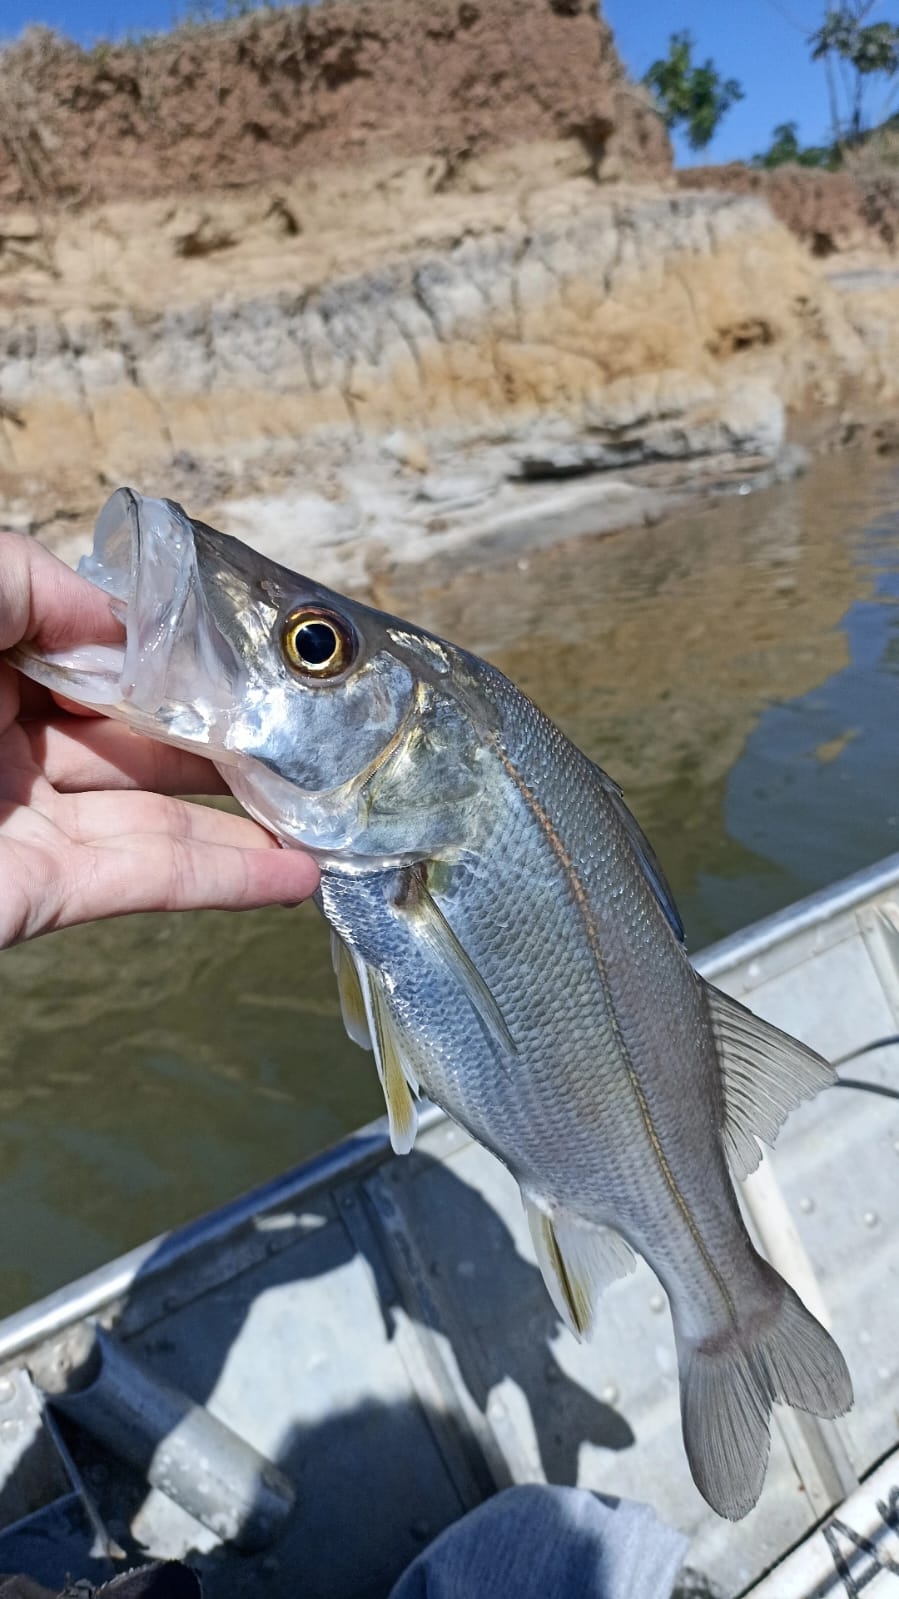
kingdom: Animalia
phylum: Chordata
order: Perciformes
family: Centropomidae
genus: Centropomus
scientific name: Centropomus undecimalis
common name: Snook
